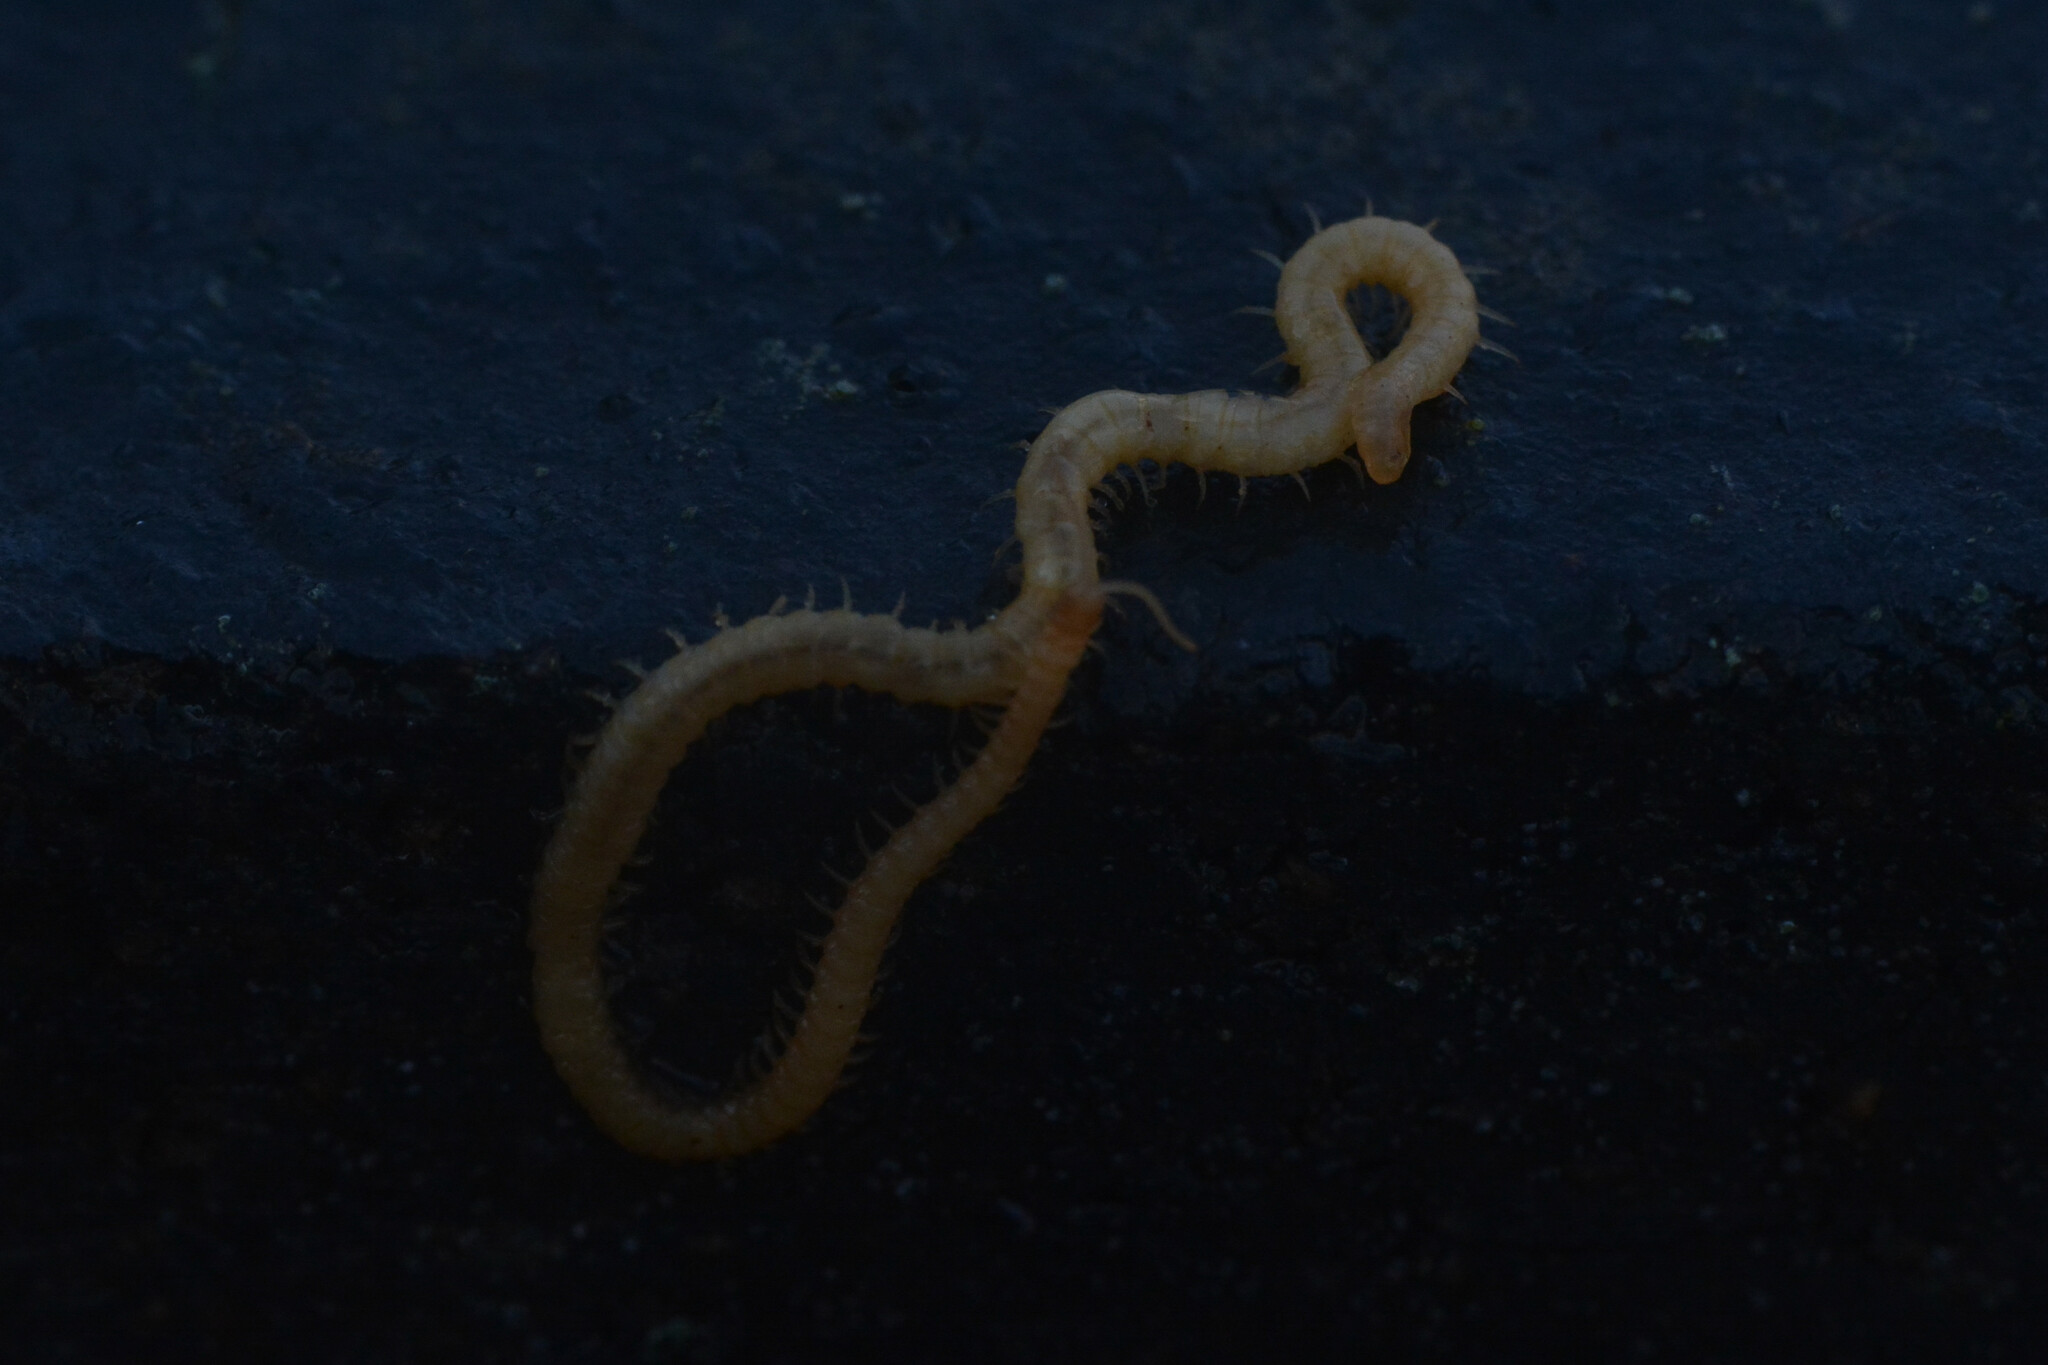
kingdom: Animalia
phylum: Arthropoda
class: Chilopoda
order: Geophilomorpha
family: Himantariidae
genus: Stigmatogaster
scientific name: Stigmatogaster subterranea
